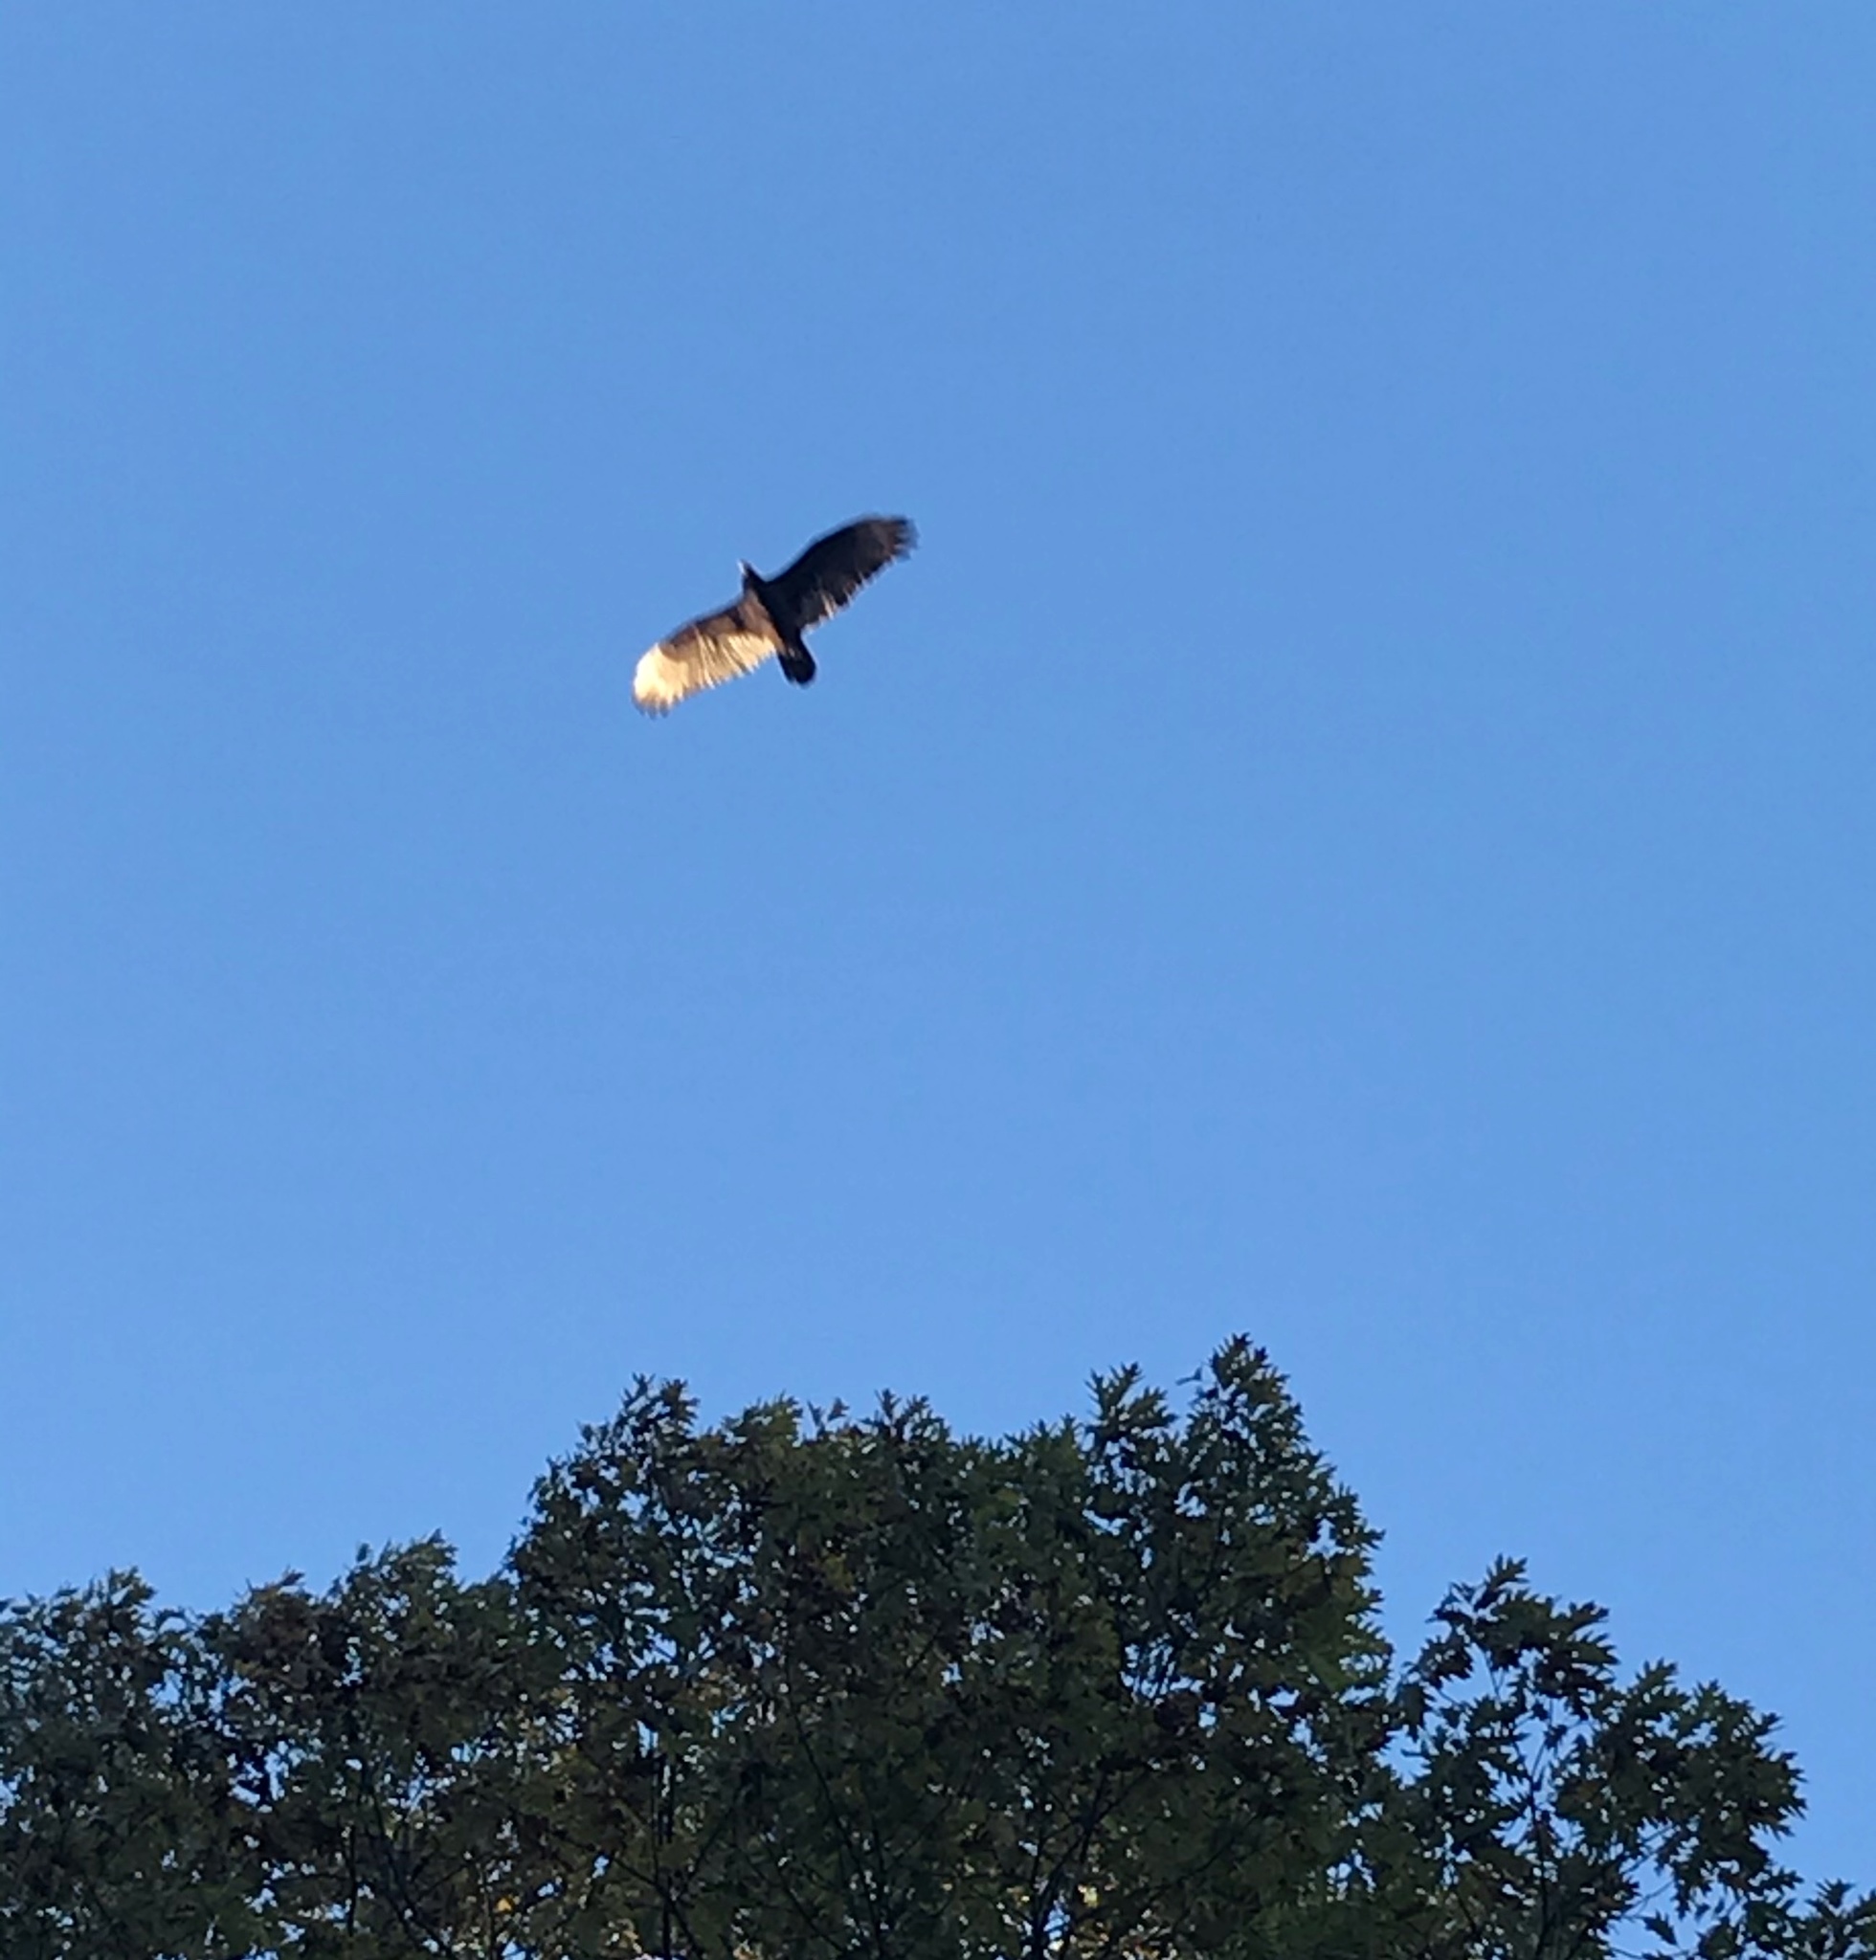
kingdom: Animalia
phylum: Chordata
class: Aves
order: Accipitriformes
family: Cathartidae
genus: Cathartes
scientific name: Cathartes aura
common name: Turkey vulture
